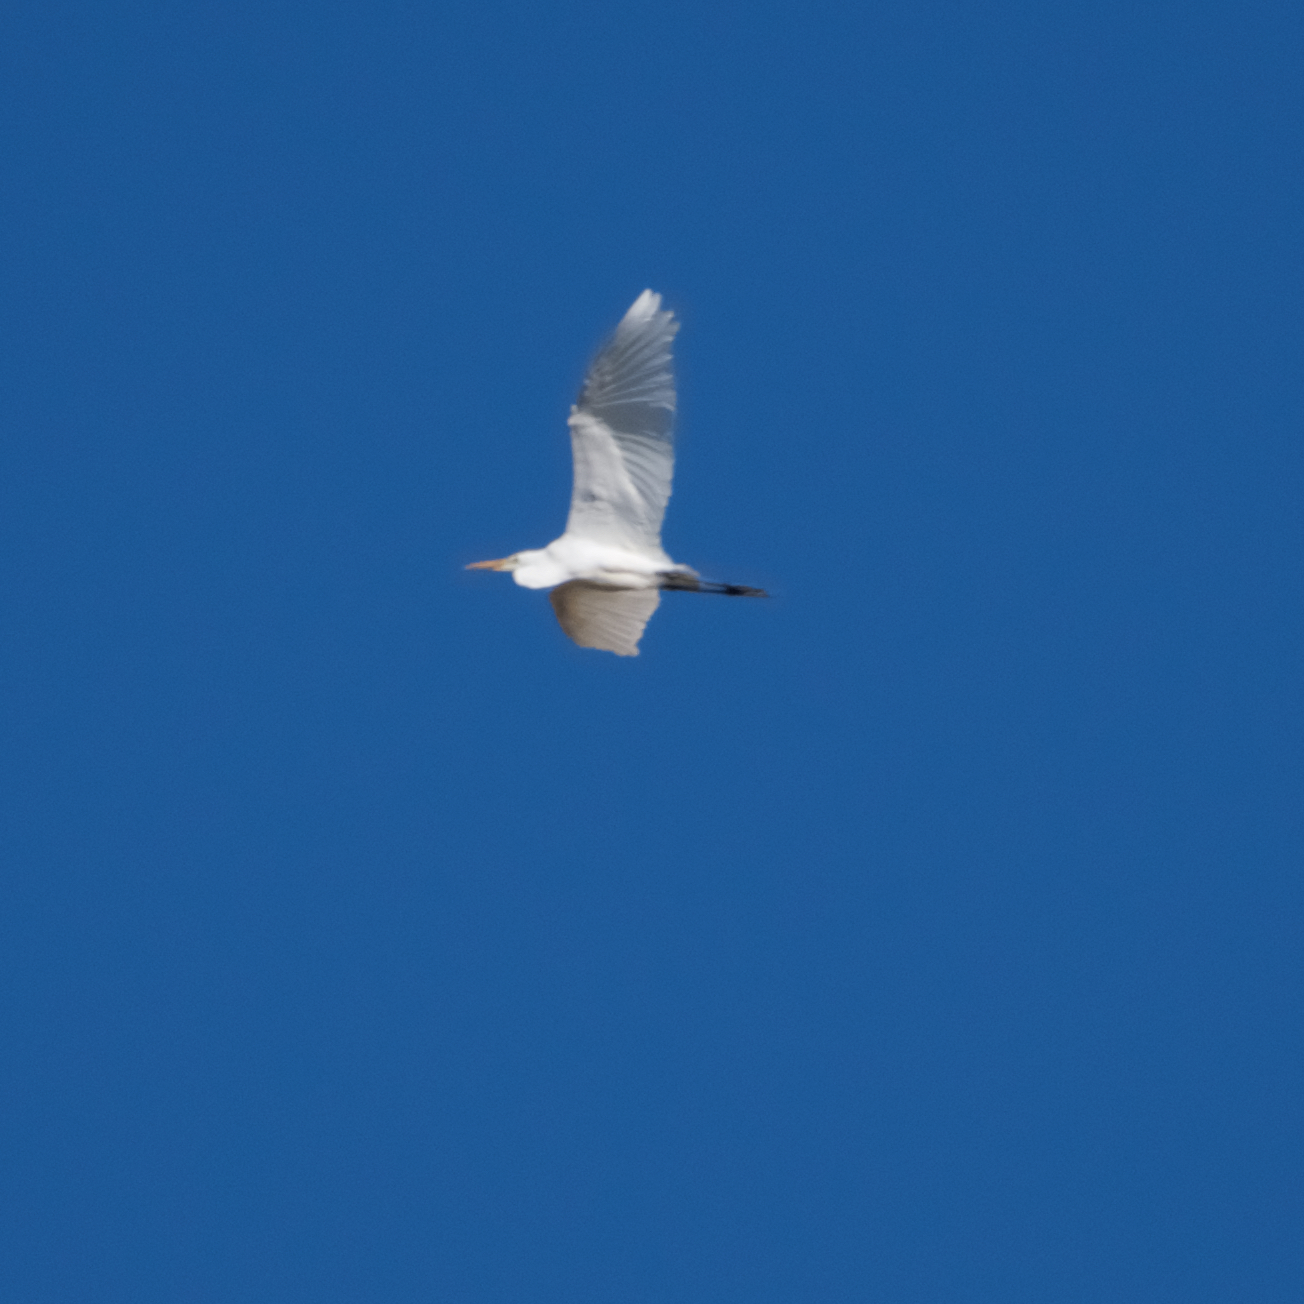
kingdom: Animalia
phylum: Chordata
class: Aves
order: Pelecaniformes
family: Ardeidae
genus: Ardea
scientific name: Ardea alba
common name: Great egret
